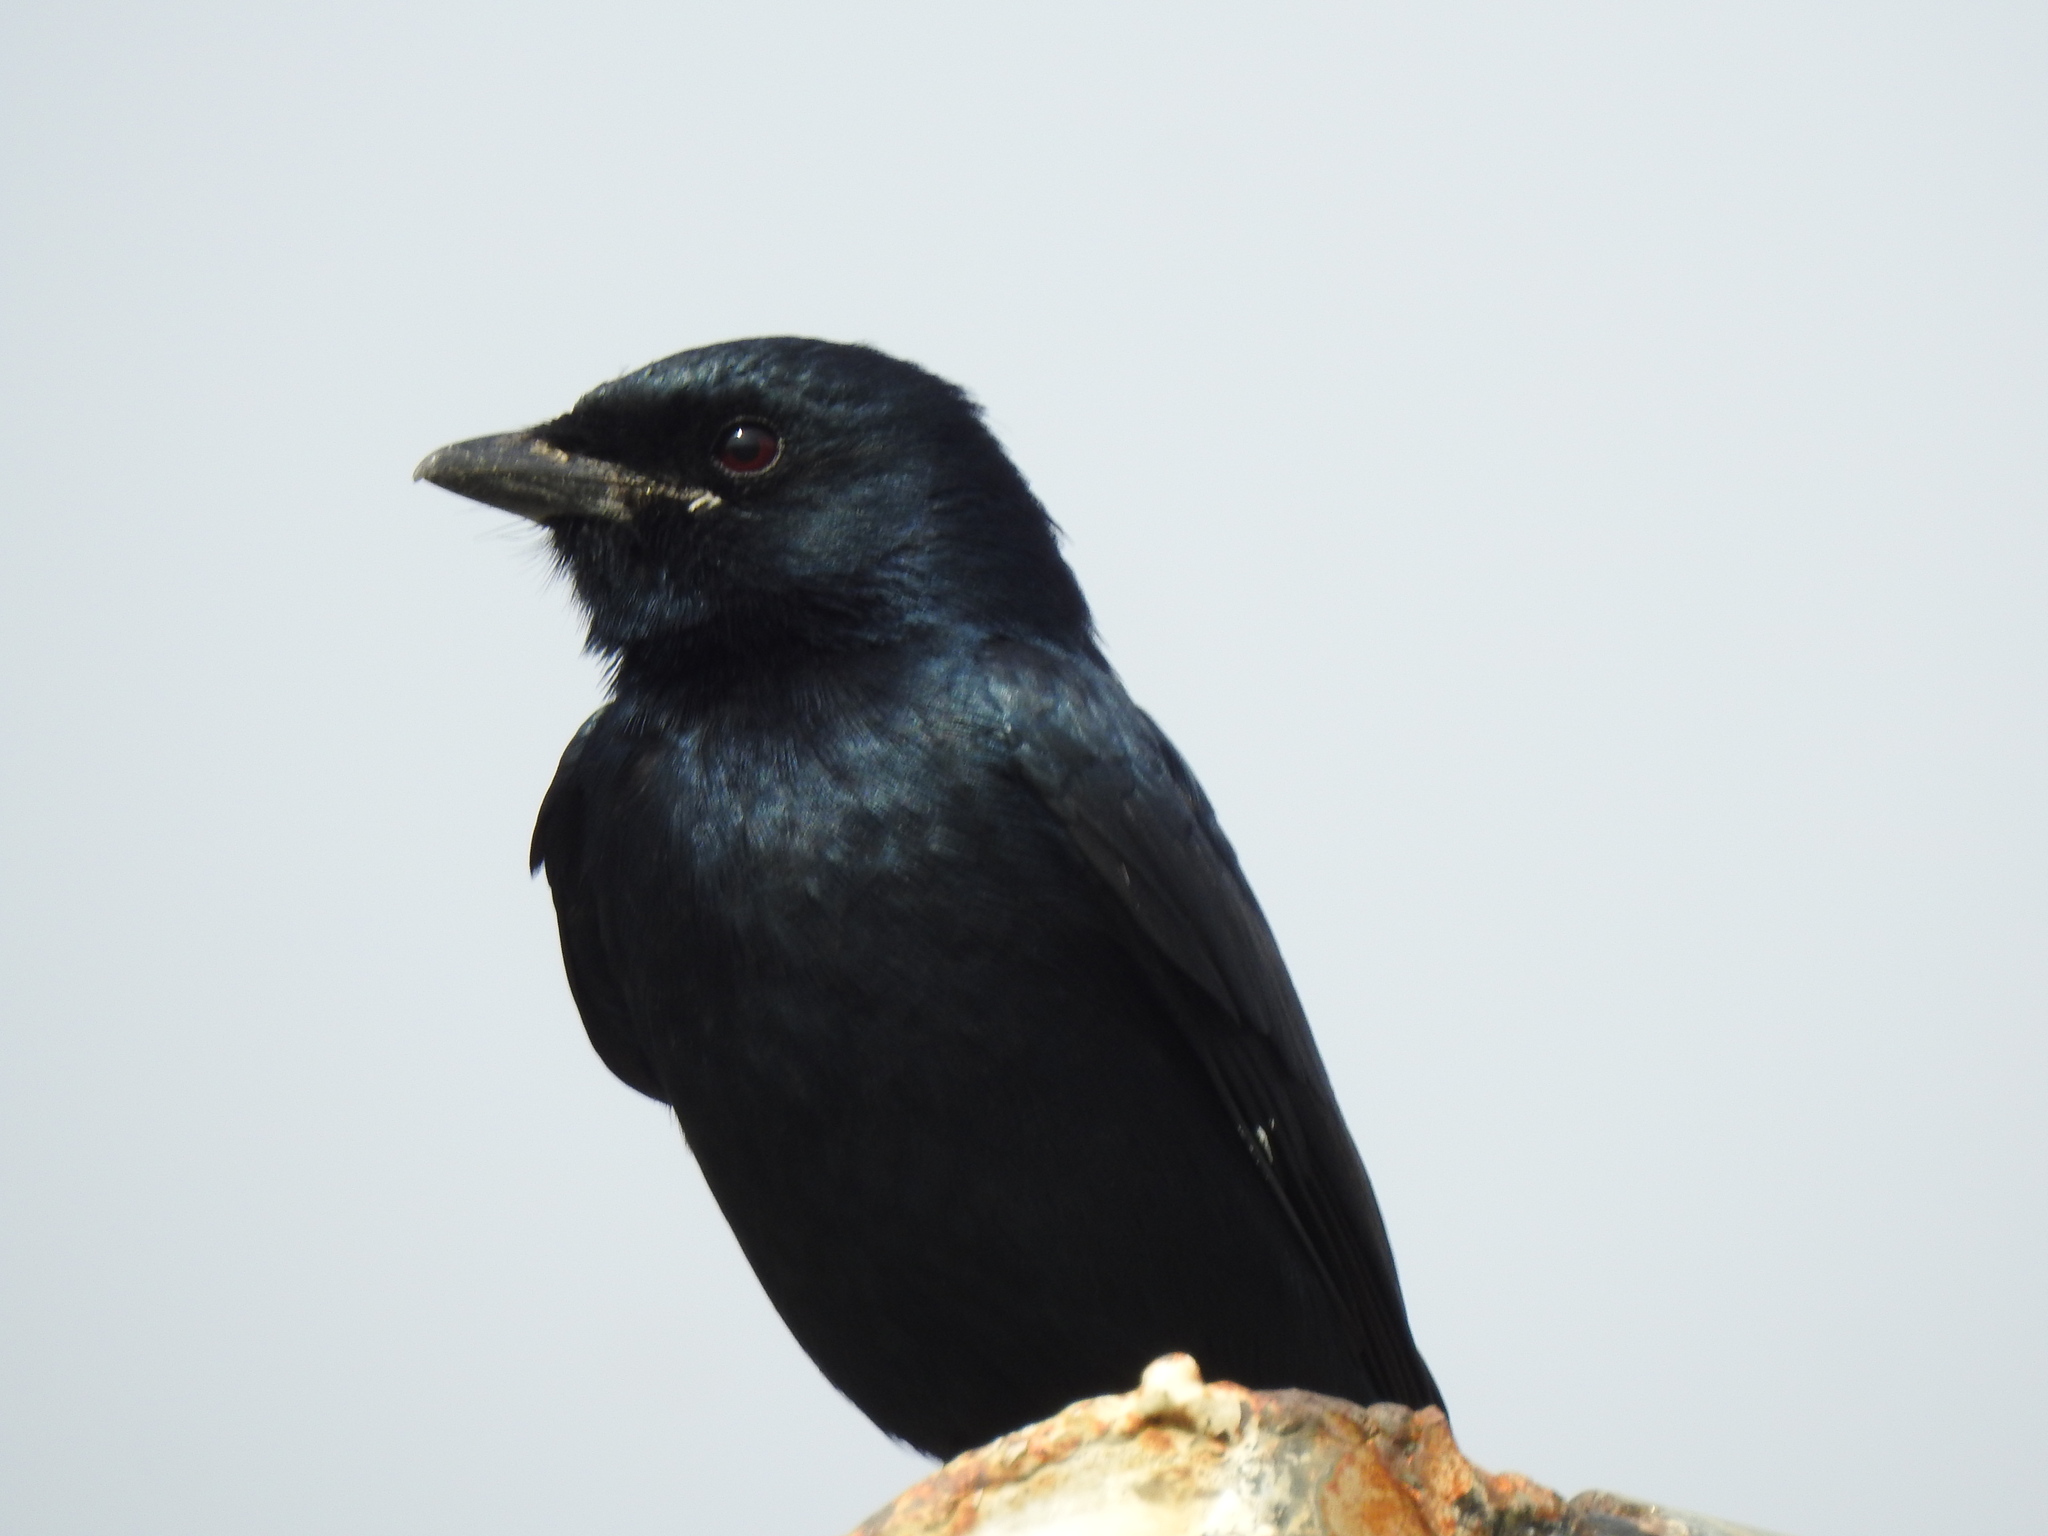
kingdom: Animalia
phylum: Chordata
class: Aves
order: Passeriformes
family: Dicruridae
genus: Dicrurus
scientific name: Dicrurus macrocercus
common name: Black drongo
